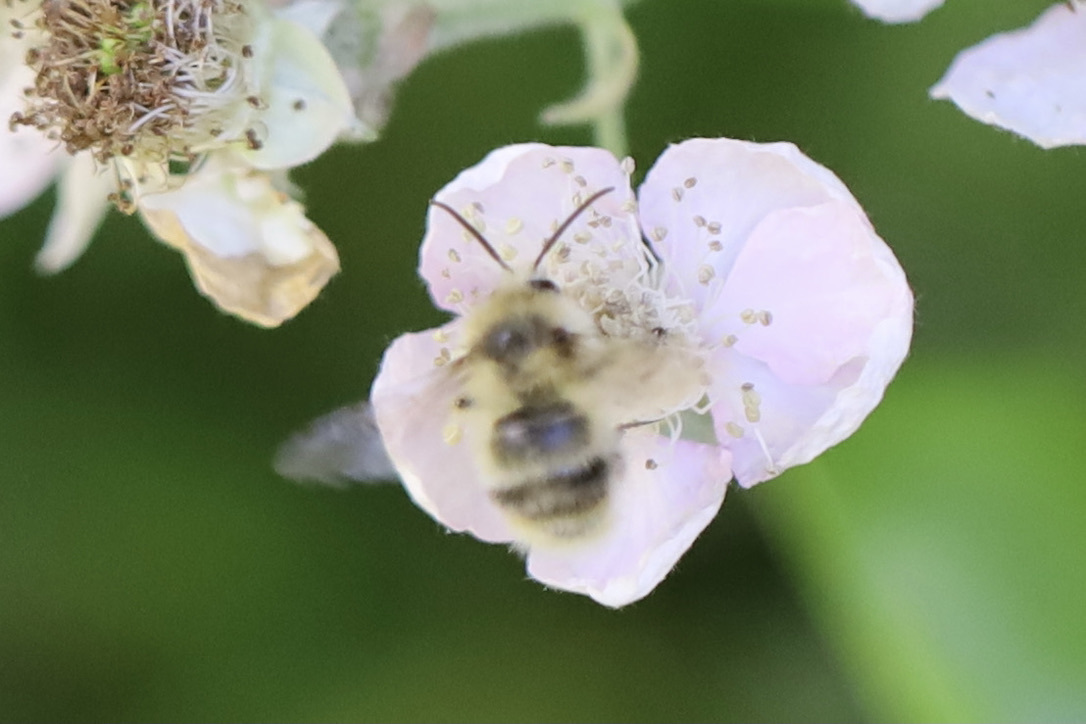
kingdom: Animalia
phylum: Arthropoda
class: Insecta
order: Hymenoptera
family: Apidae
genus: Bombus
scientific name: Bombus mixtus
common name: Fuzzy-horned bumble bee
